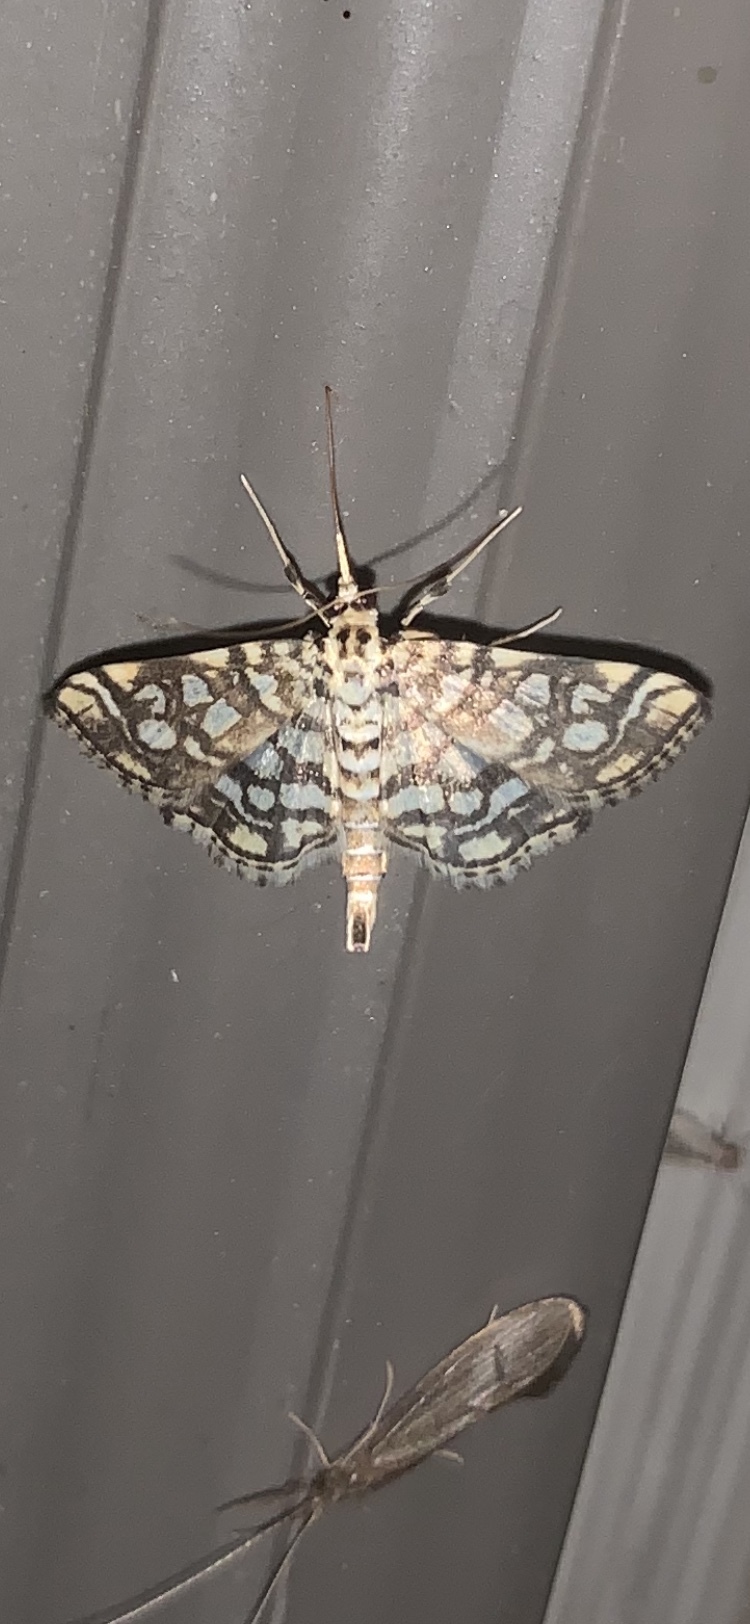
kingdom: Animalia
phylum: Arthropoda
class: Insecta
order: Lepidoptera
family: Crambidae
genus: Lygropia
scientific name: Lygropia rivulalis
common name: Bog lygropia moth
